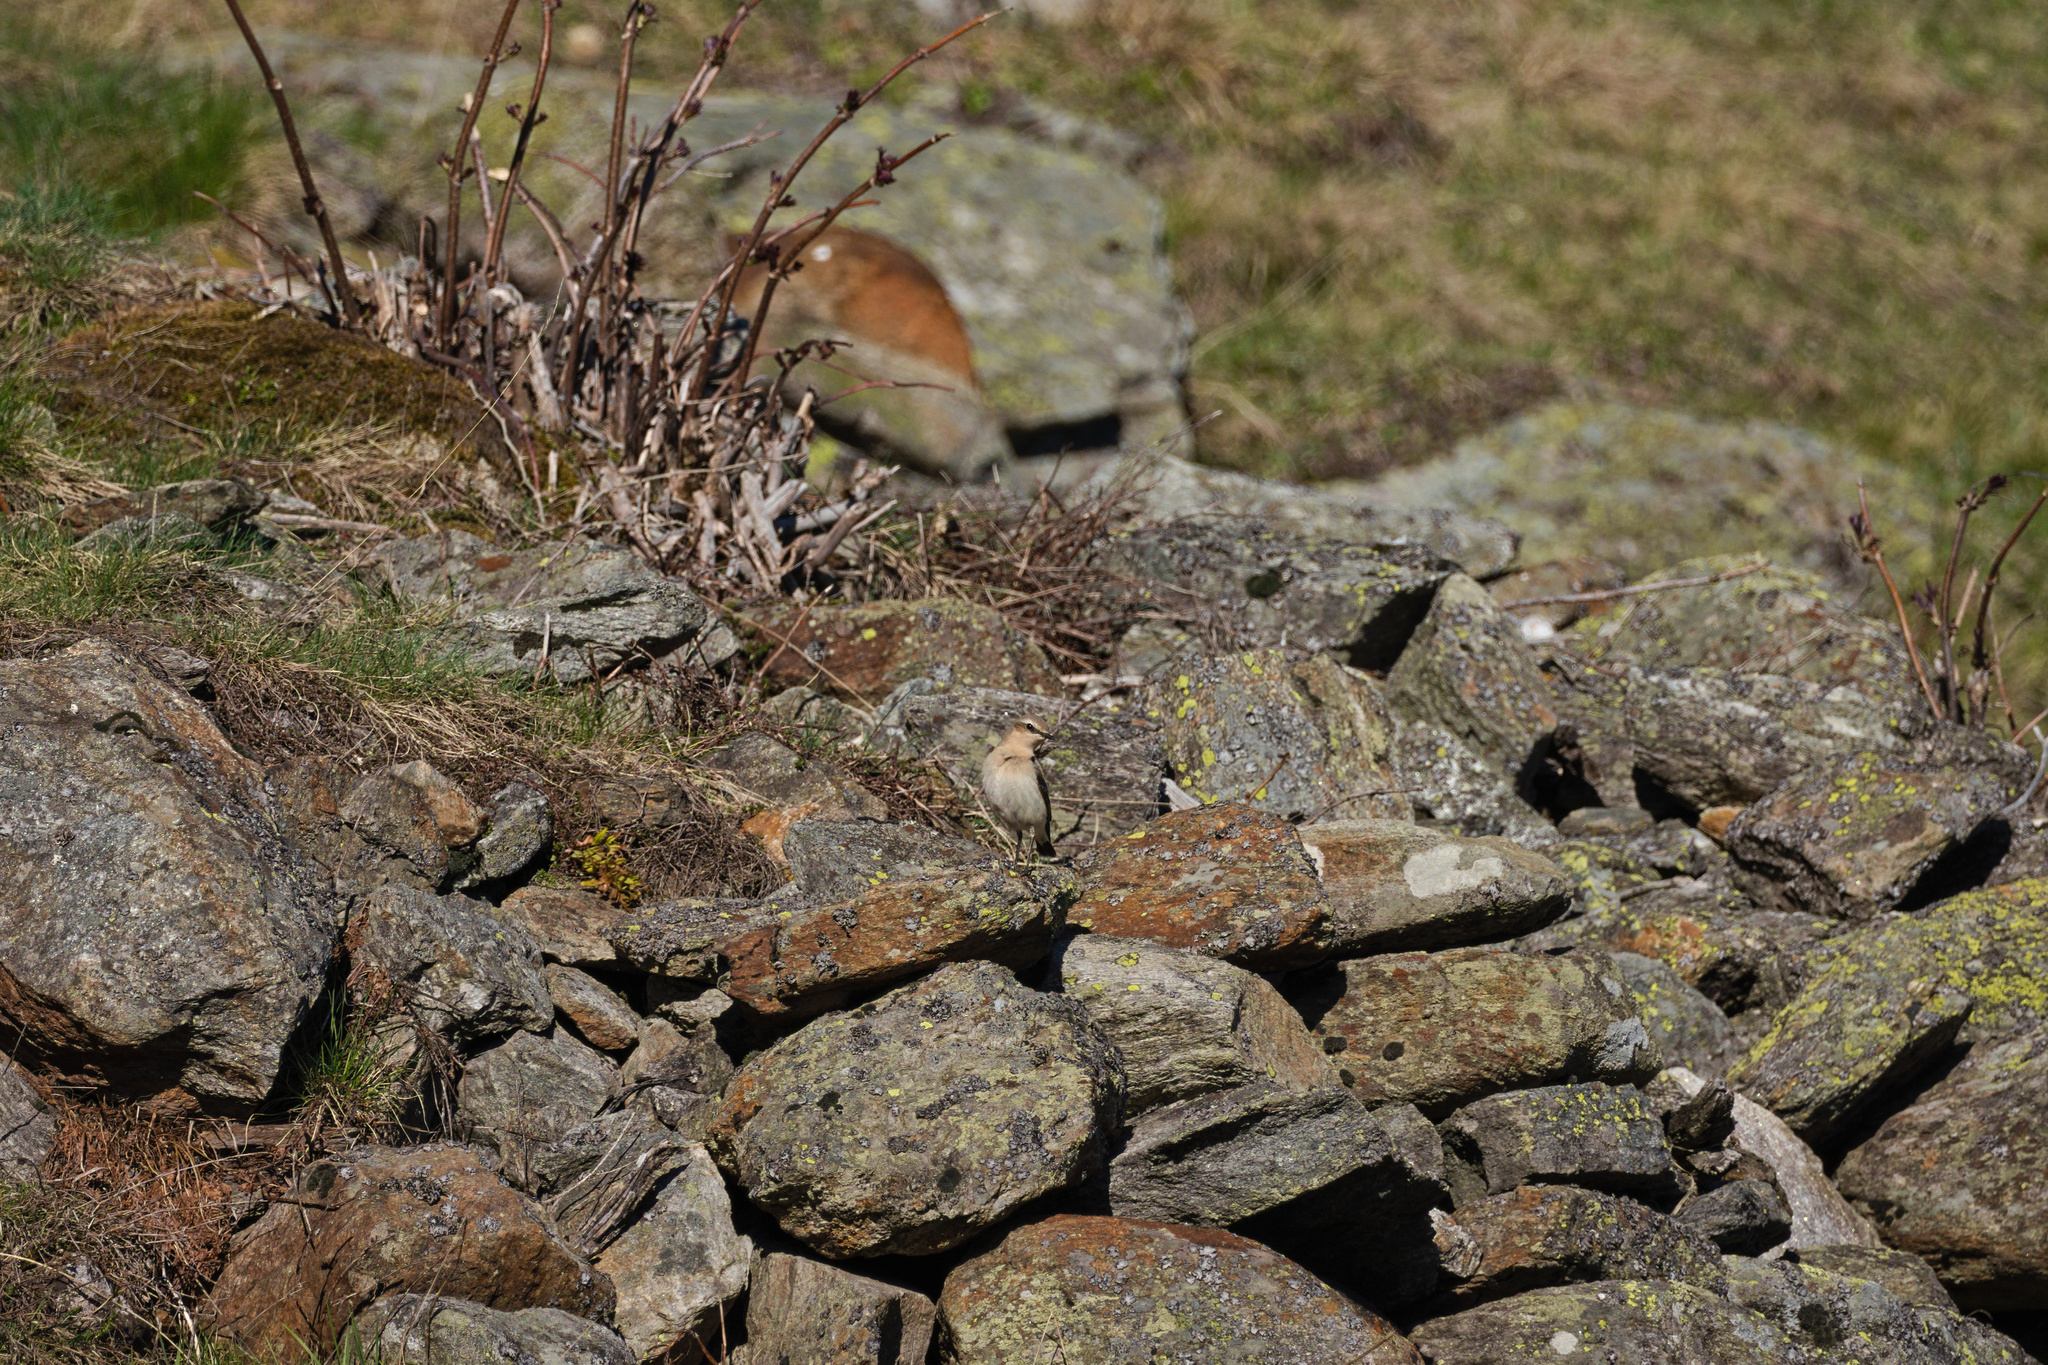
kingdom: Animalia
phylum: Chordata
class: Aves
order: Passeriformes
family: Muscicapidae
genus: Oenanthe
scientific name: Oenanthe oenanthe
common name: Northern wheatear
